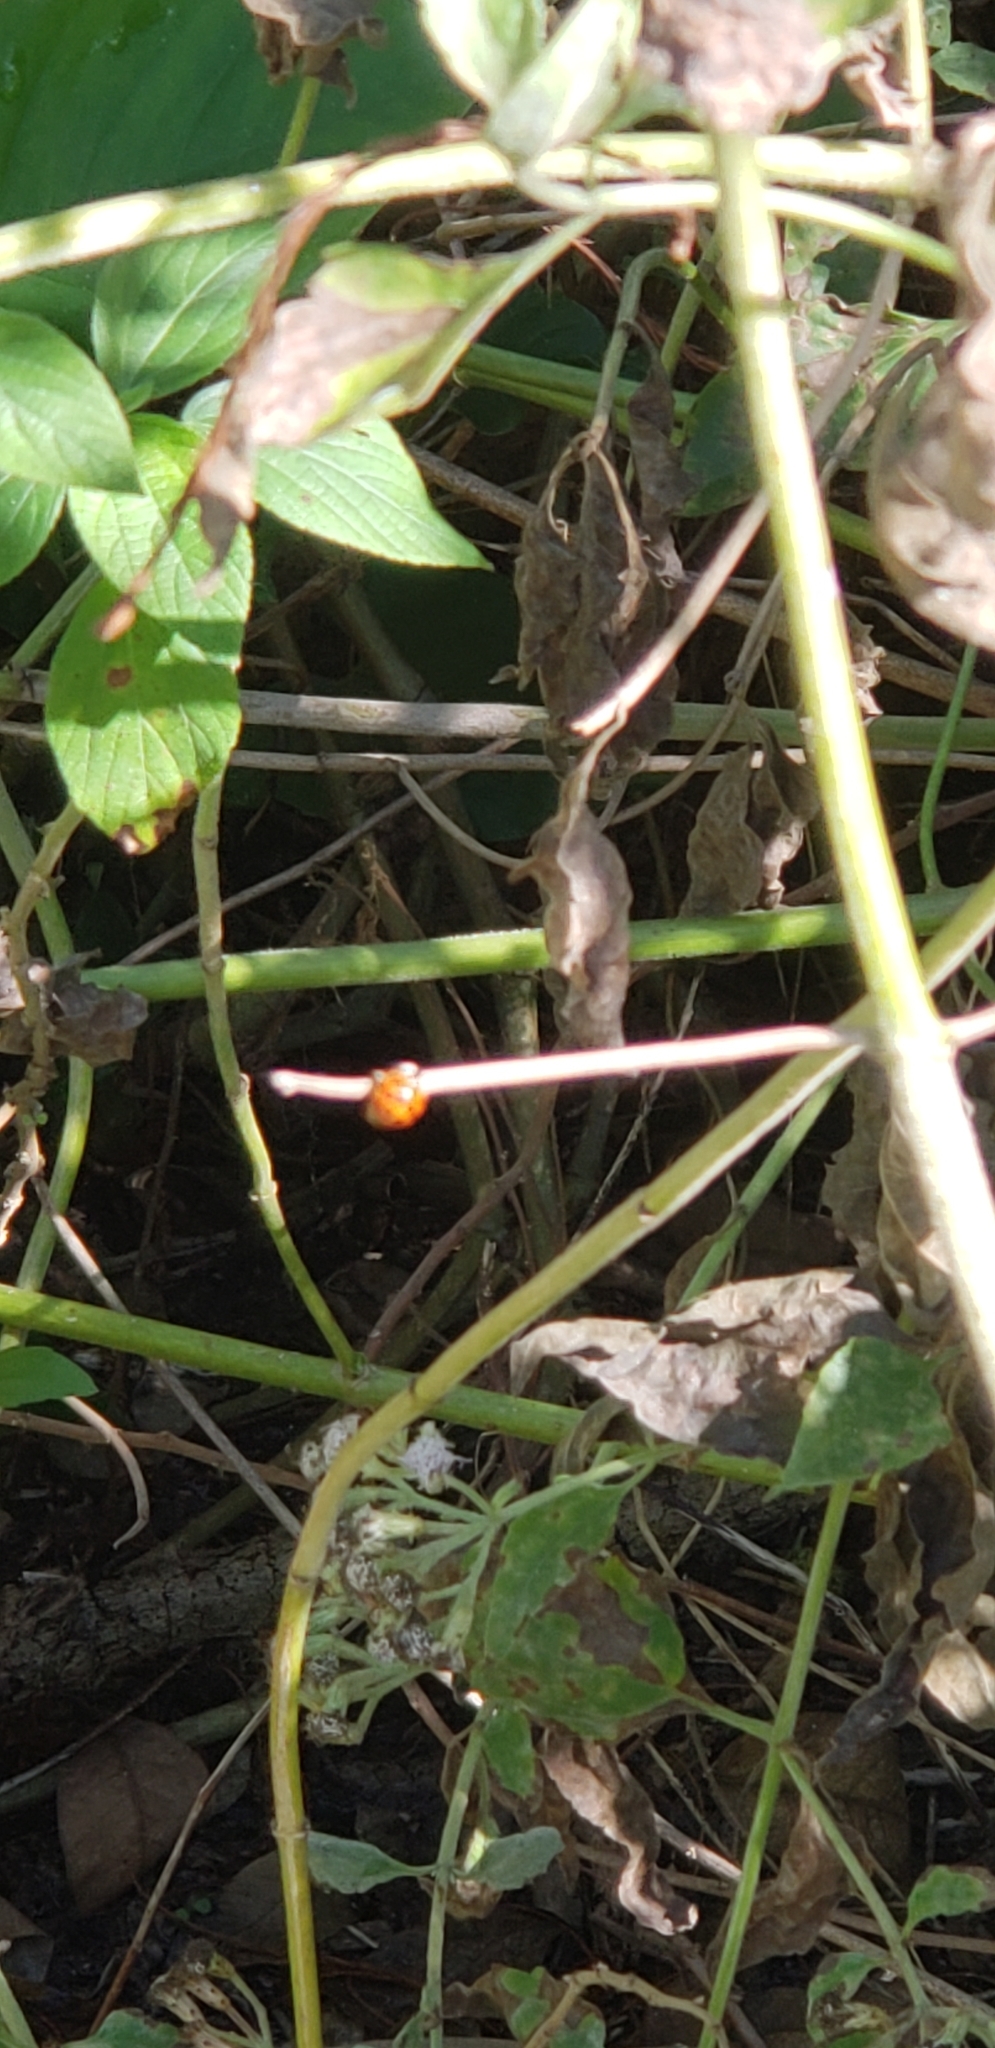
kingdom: Animalia
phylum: Arthropoda
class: Insecta
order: Coleoptera
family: Coccinellidae
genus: Harmonia
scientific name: Harmonia axyridis
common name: Harlequin ladybird
